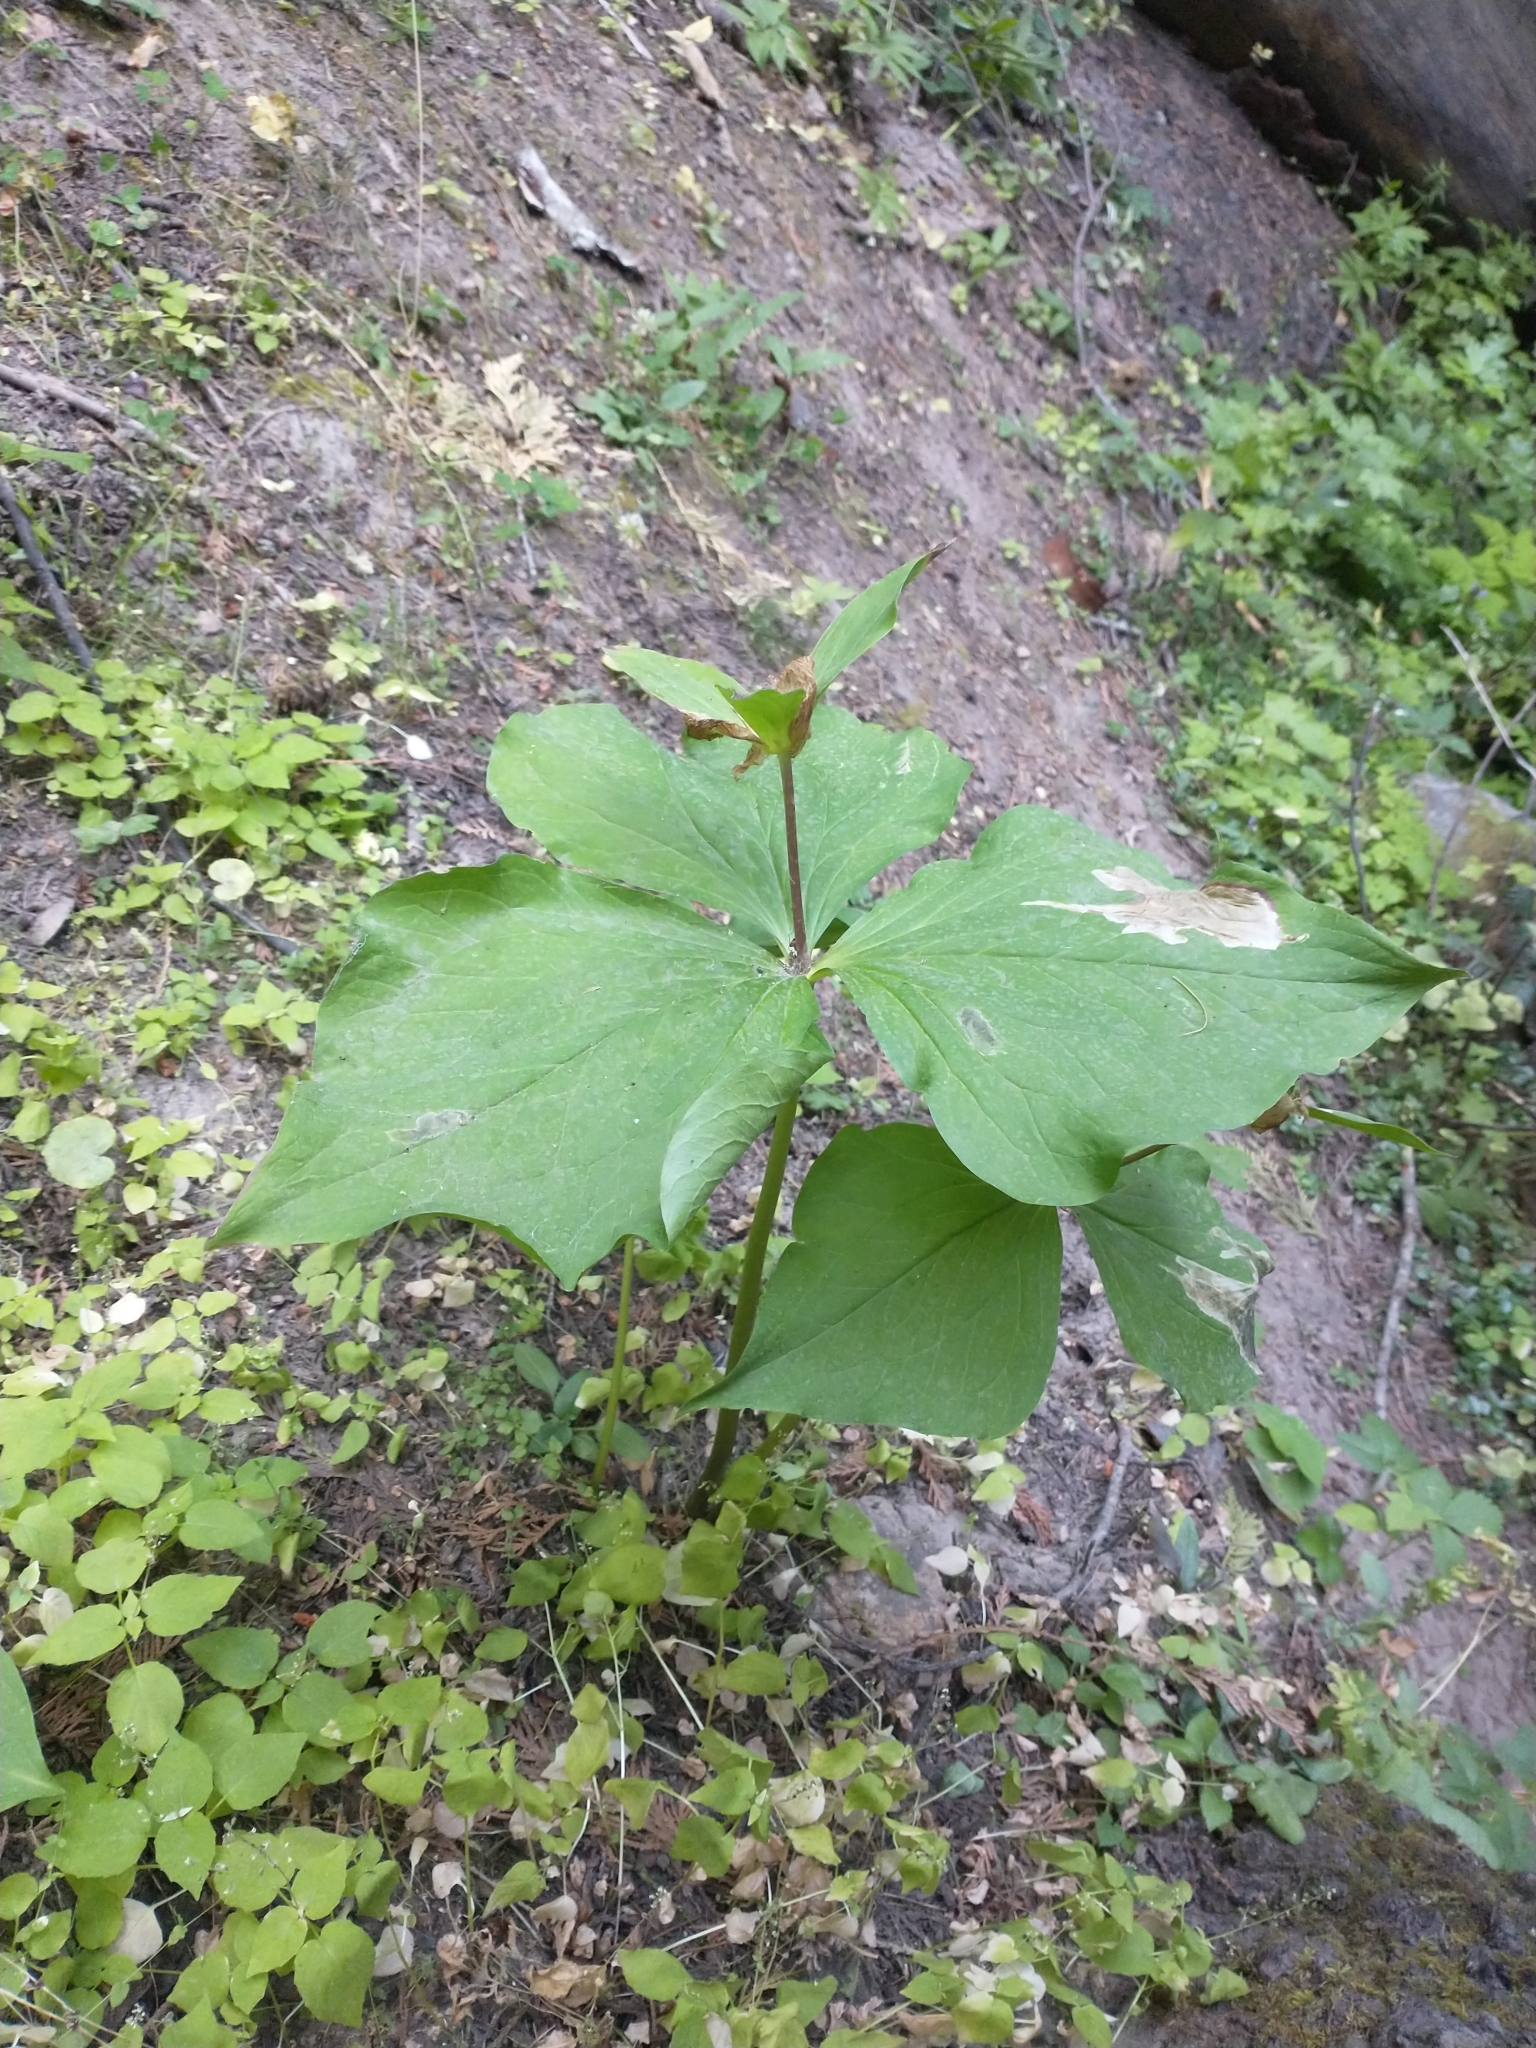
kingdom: Plantae
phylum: Tracheophyta
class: Liliopsida
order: Liliales
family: Melanthiaceae
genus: Trillium
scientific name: Trillium ovatum
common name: Pacific trillium
